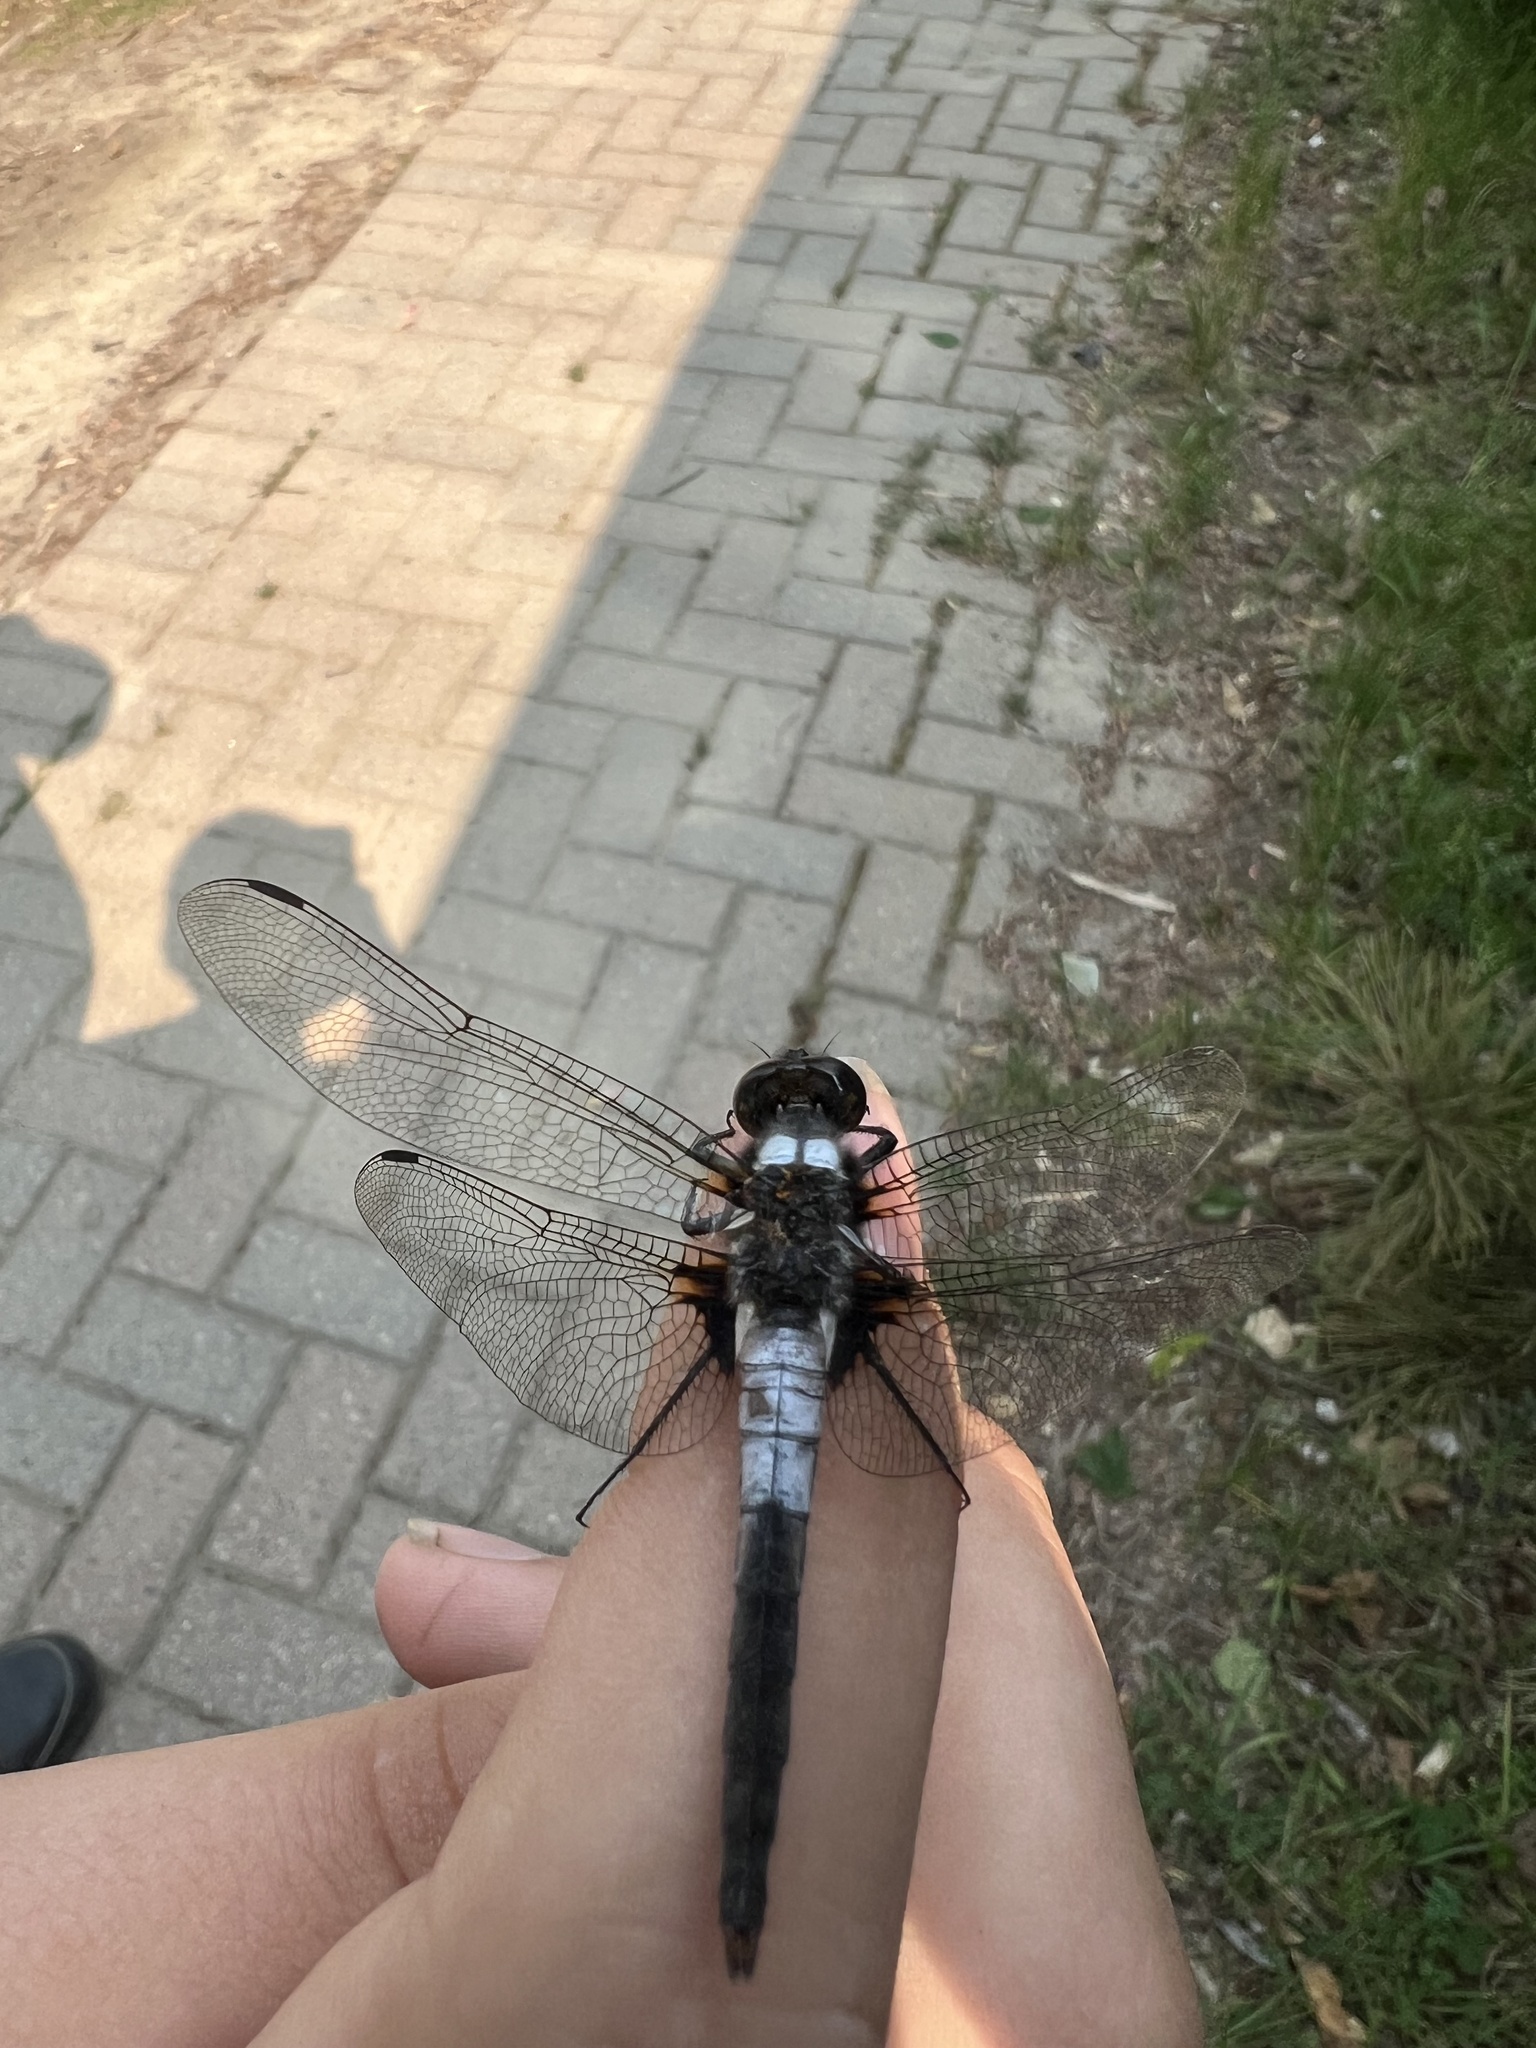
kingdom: Animalia
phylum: Arthropoda
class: Insecta
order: Odonata
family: Libellulidae
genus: Ladona
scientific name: Ladona julia
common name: Chalk-fronted corporal
